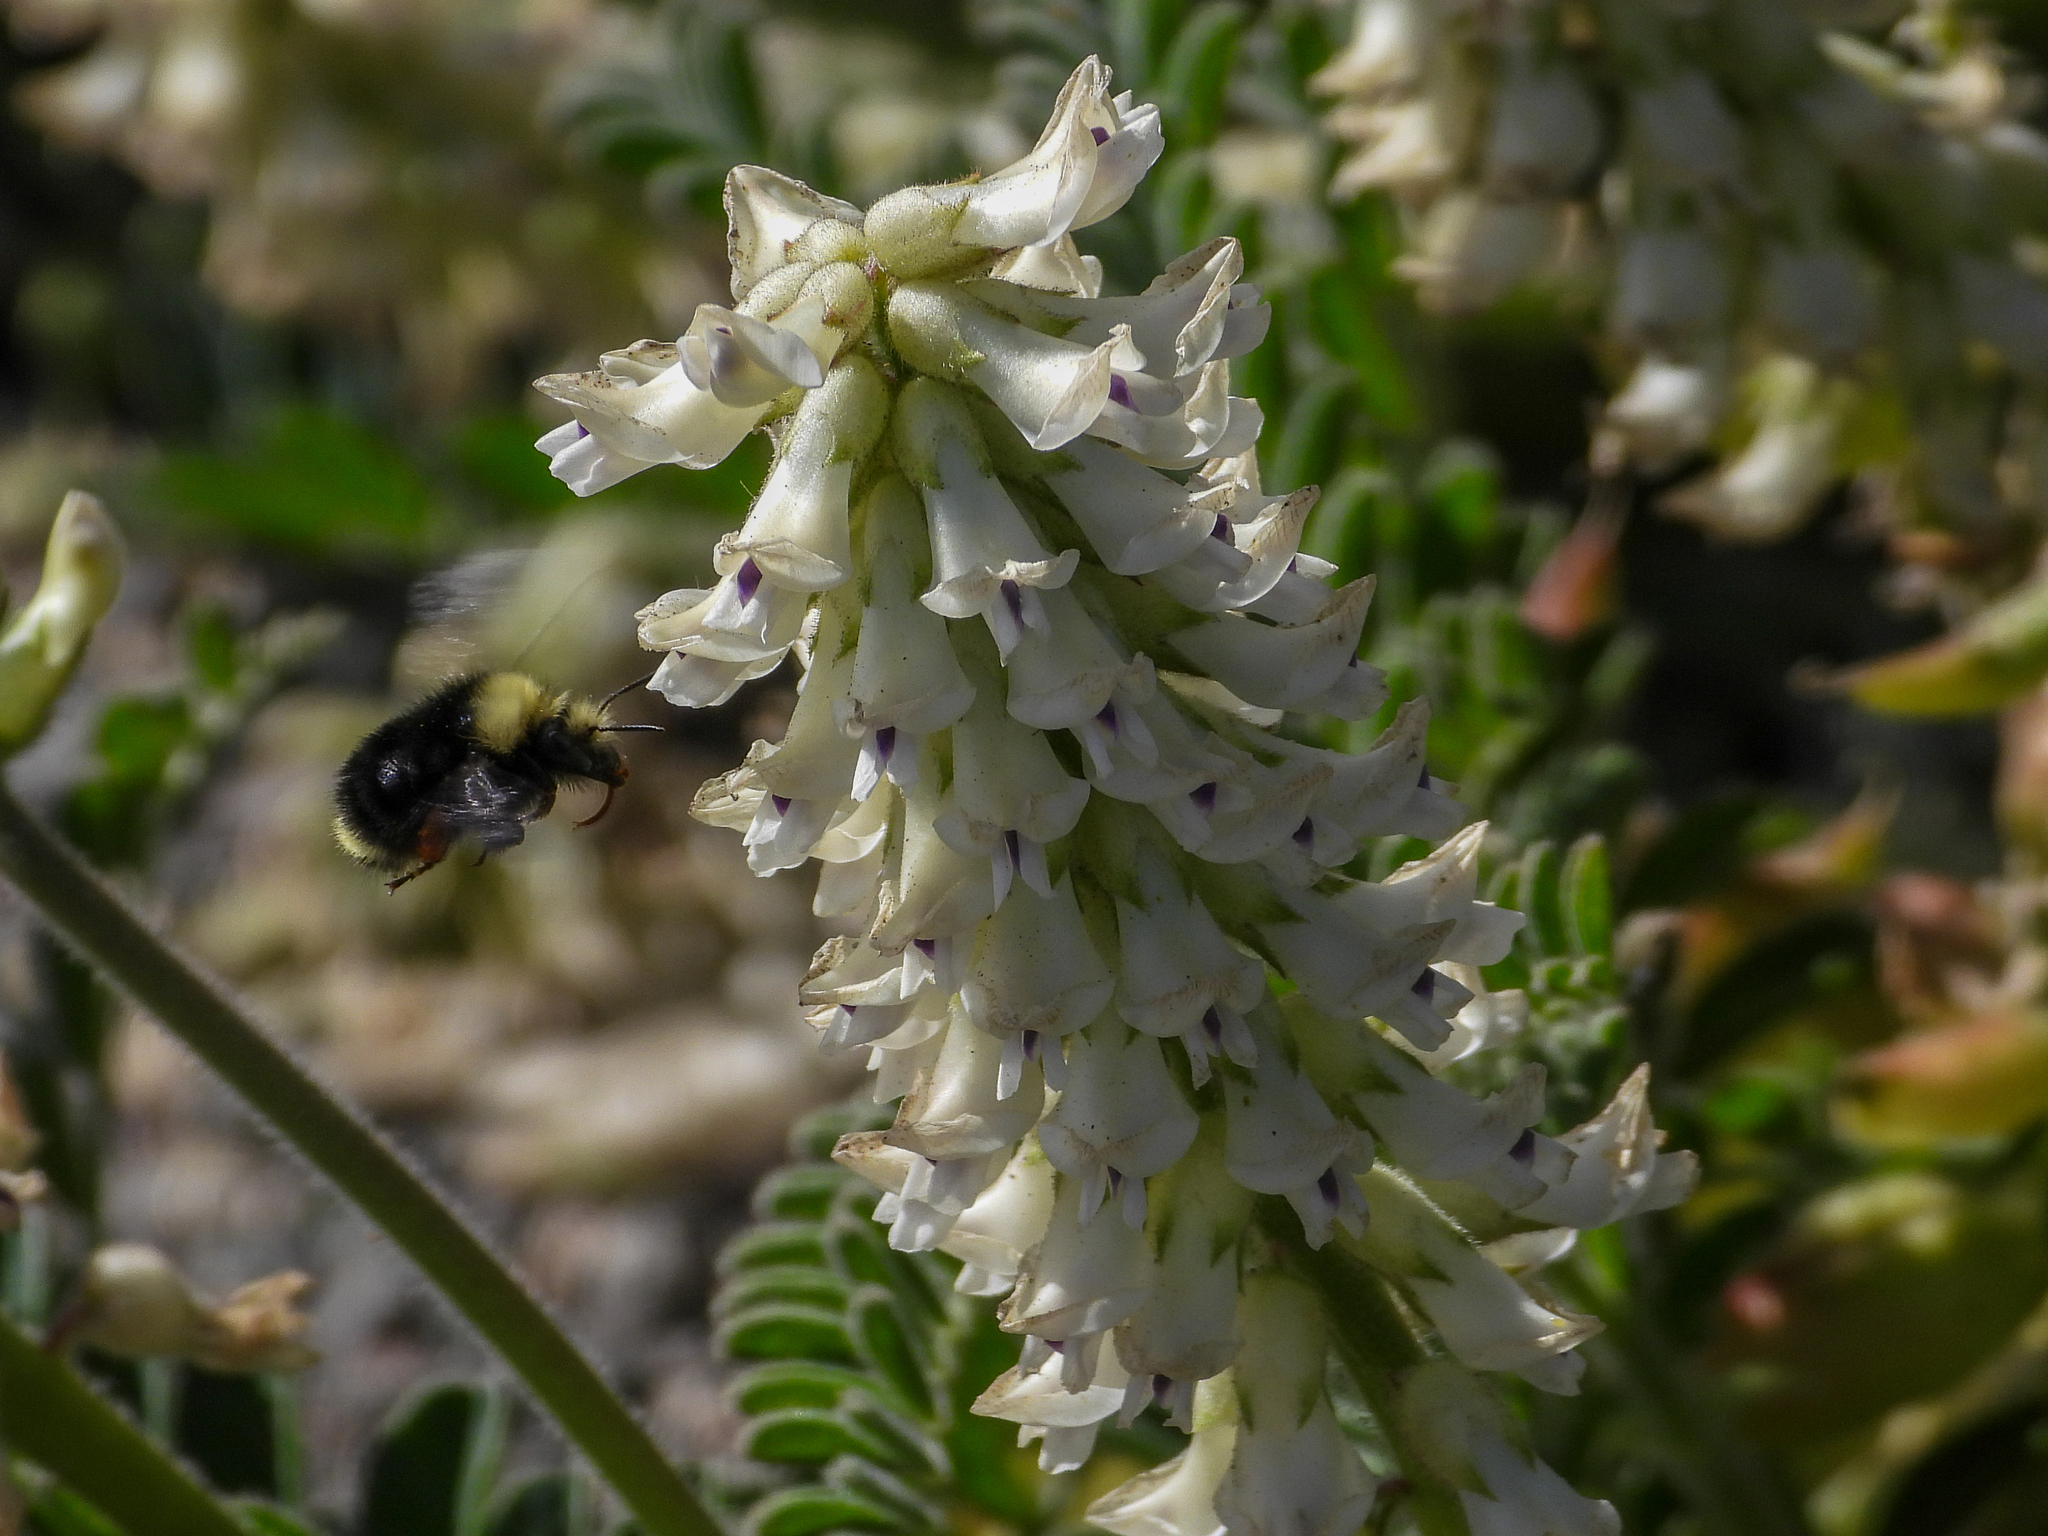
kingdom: Animalia
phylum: Arthropoda
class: Insecta
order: Hymenoptera
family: Apidae
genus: Bombus
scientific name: Bombus caliginosus
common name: Obscure bumble bee
